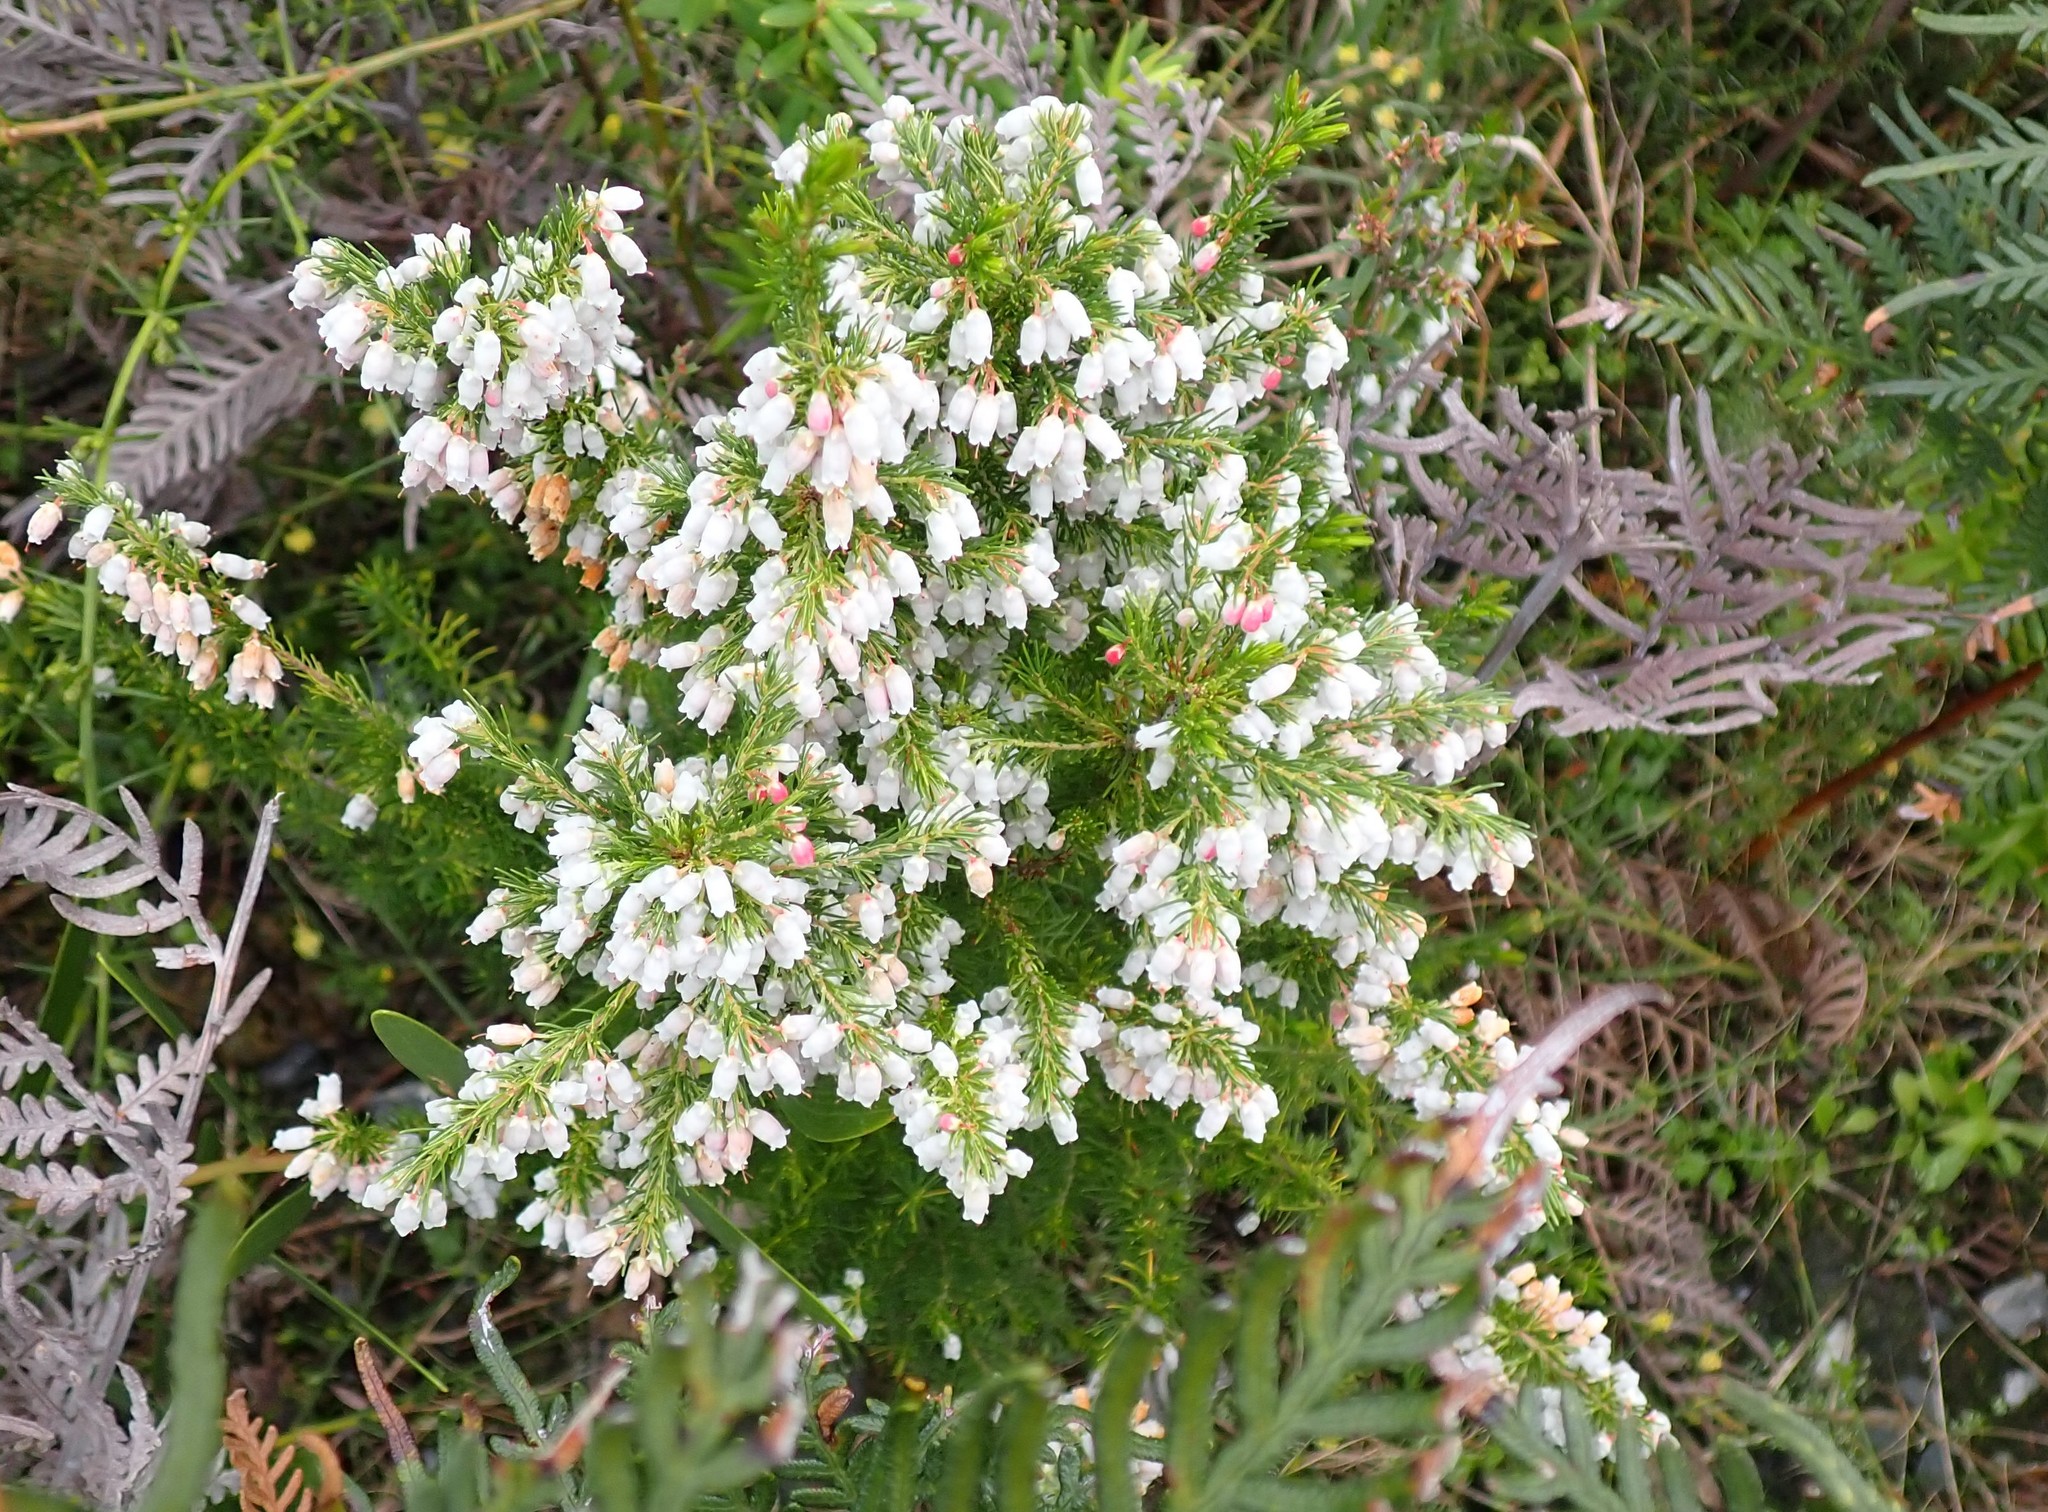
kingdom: Plantae
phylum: Tracheophyta
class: Magnoliopsida
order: Ericales
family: Ericaceae
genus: Erica
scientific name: Erica lusitanica
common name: Spanish heath
